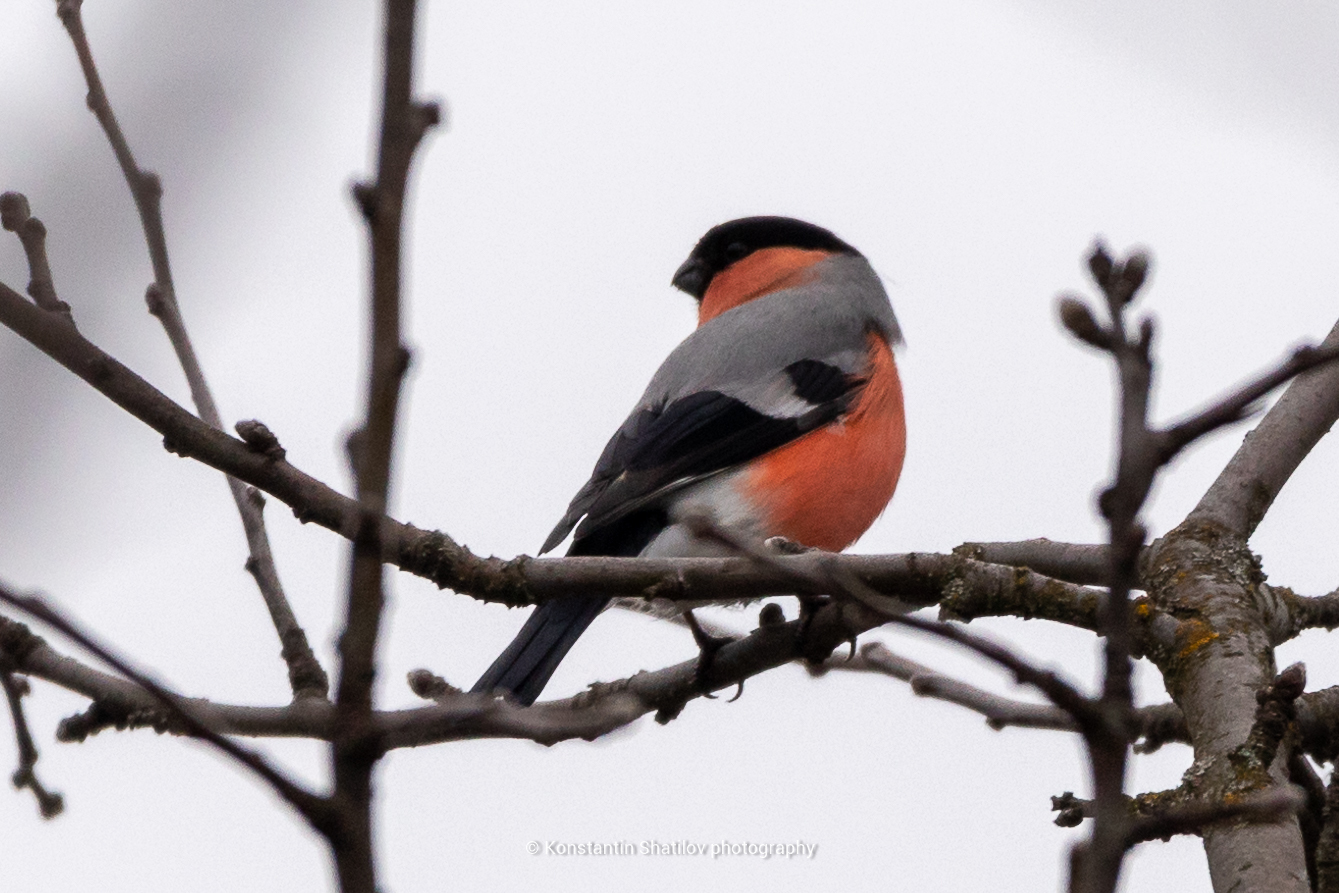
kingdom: Animalia
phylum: Chordata
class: Aves
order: Passeriformes
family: Fringillidae
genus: Pyrrhula
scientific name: Pyrrhula pyrrhula
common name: Eurasian bullfinch
